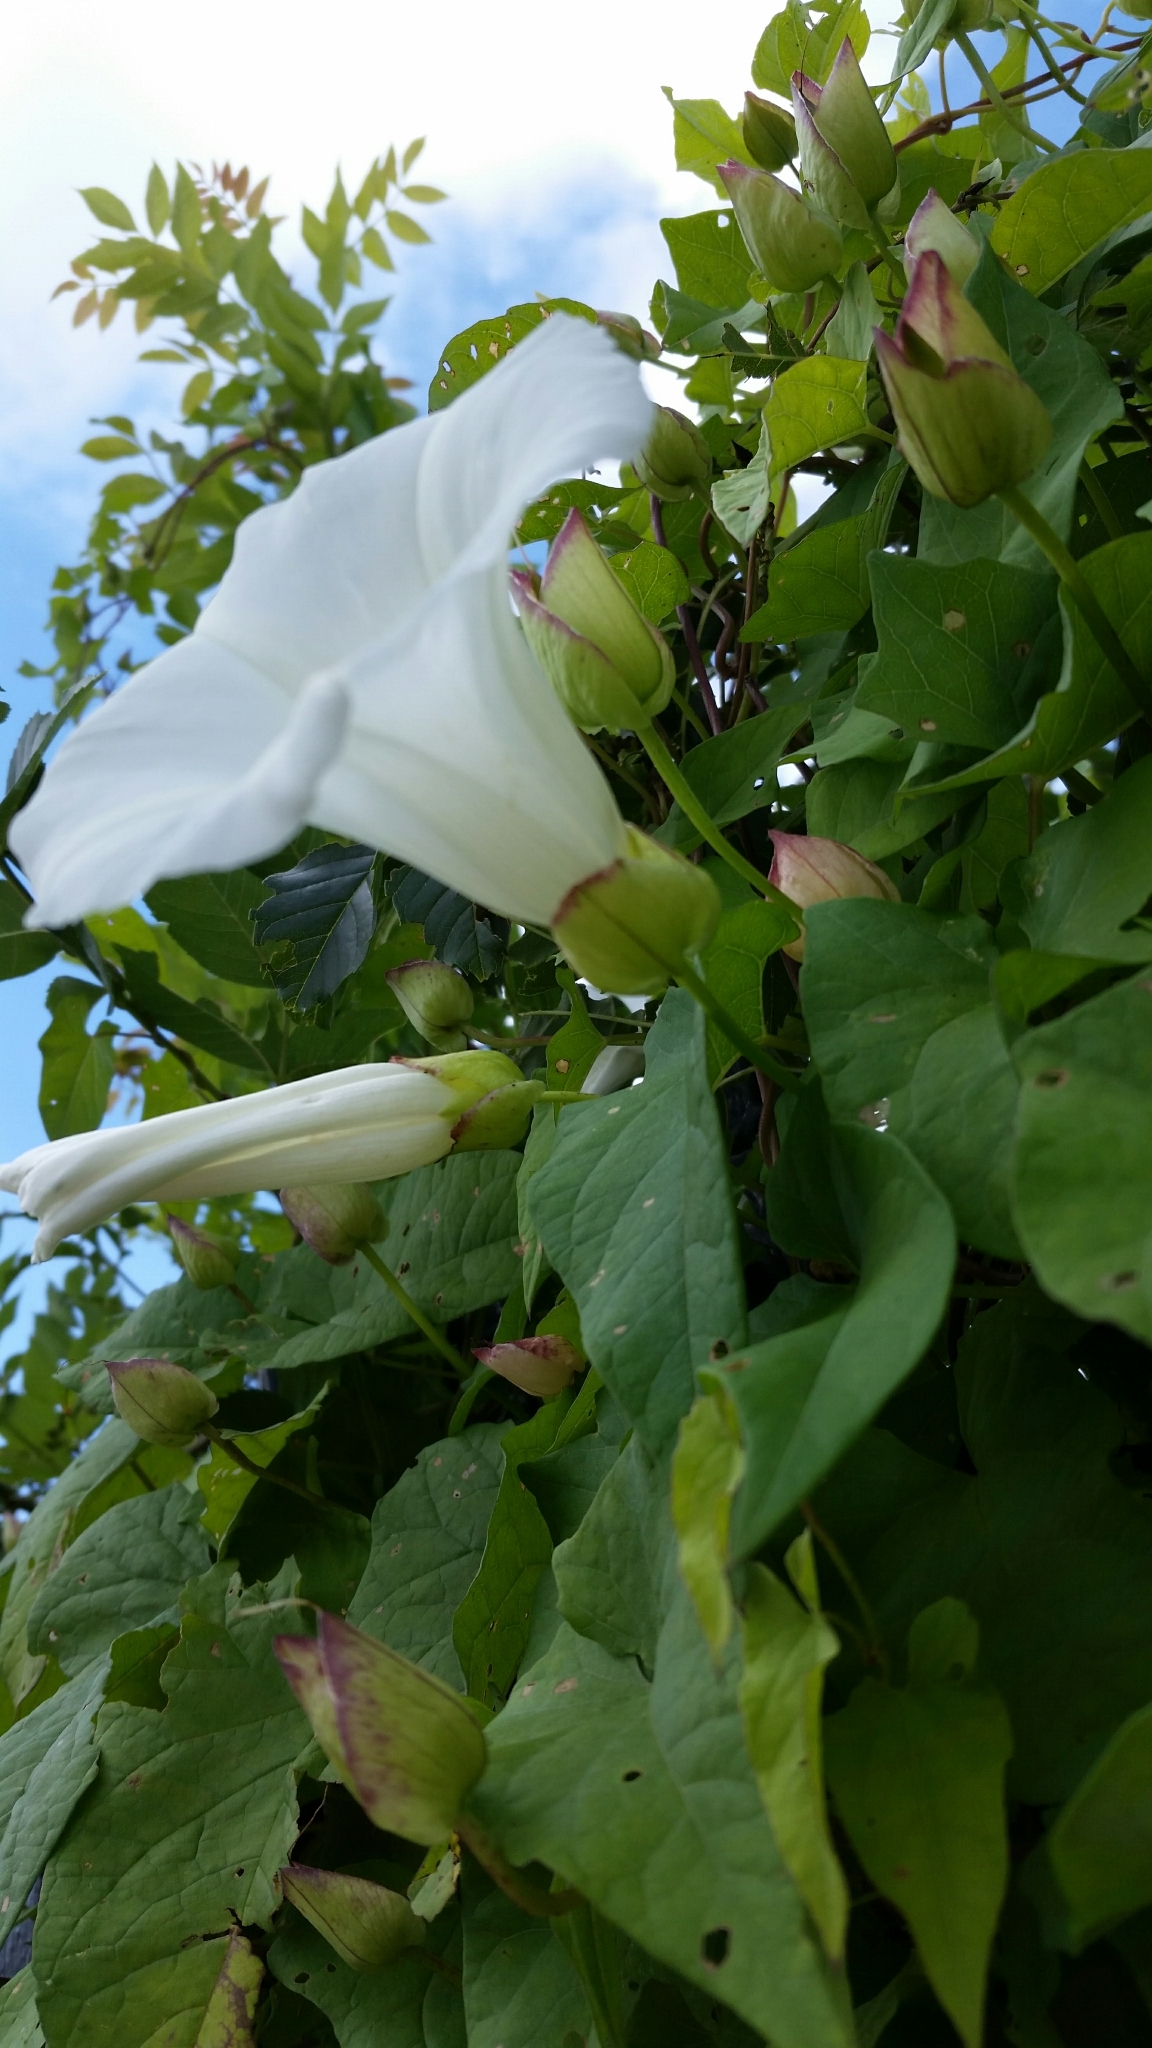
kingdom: Plantae
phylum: Tracheophyta
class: Magnoliopsida
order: Solanales
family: Convolvulaceae
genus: Calystegia
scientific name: Calystegia silvatica
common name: Large bindweed
